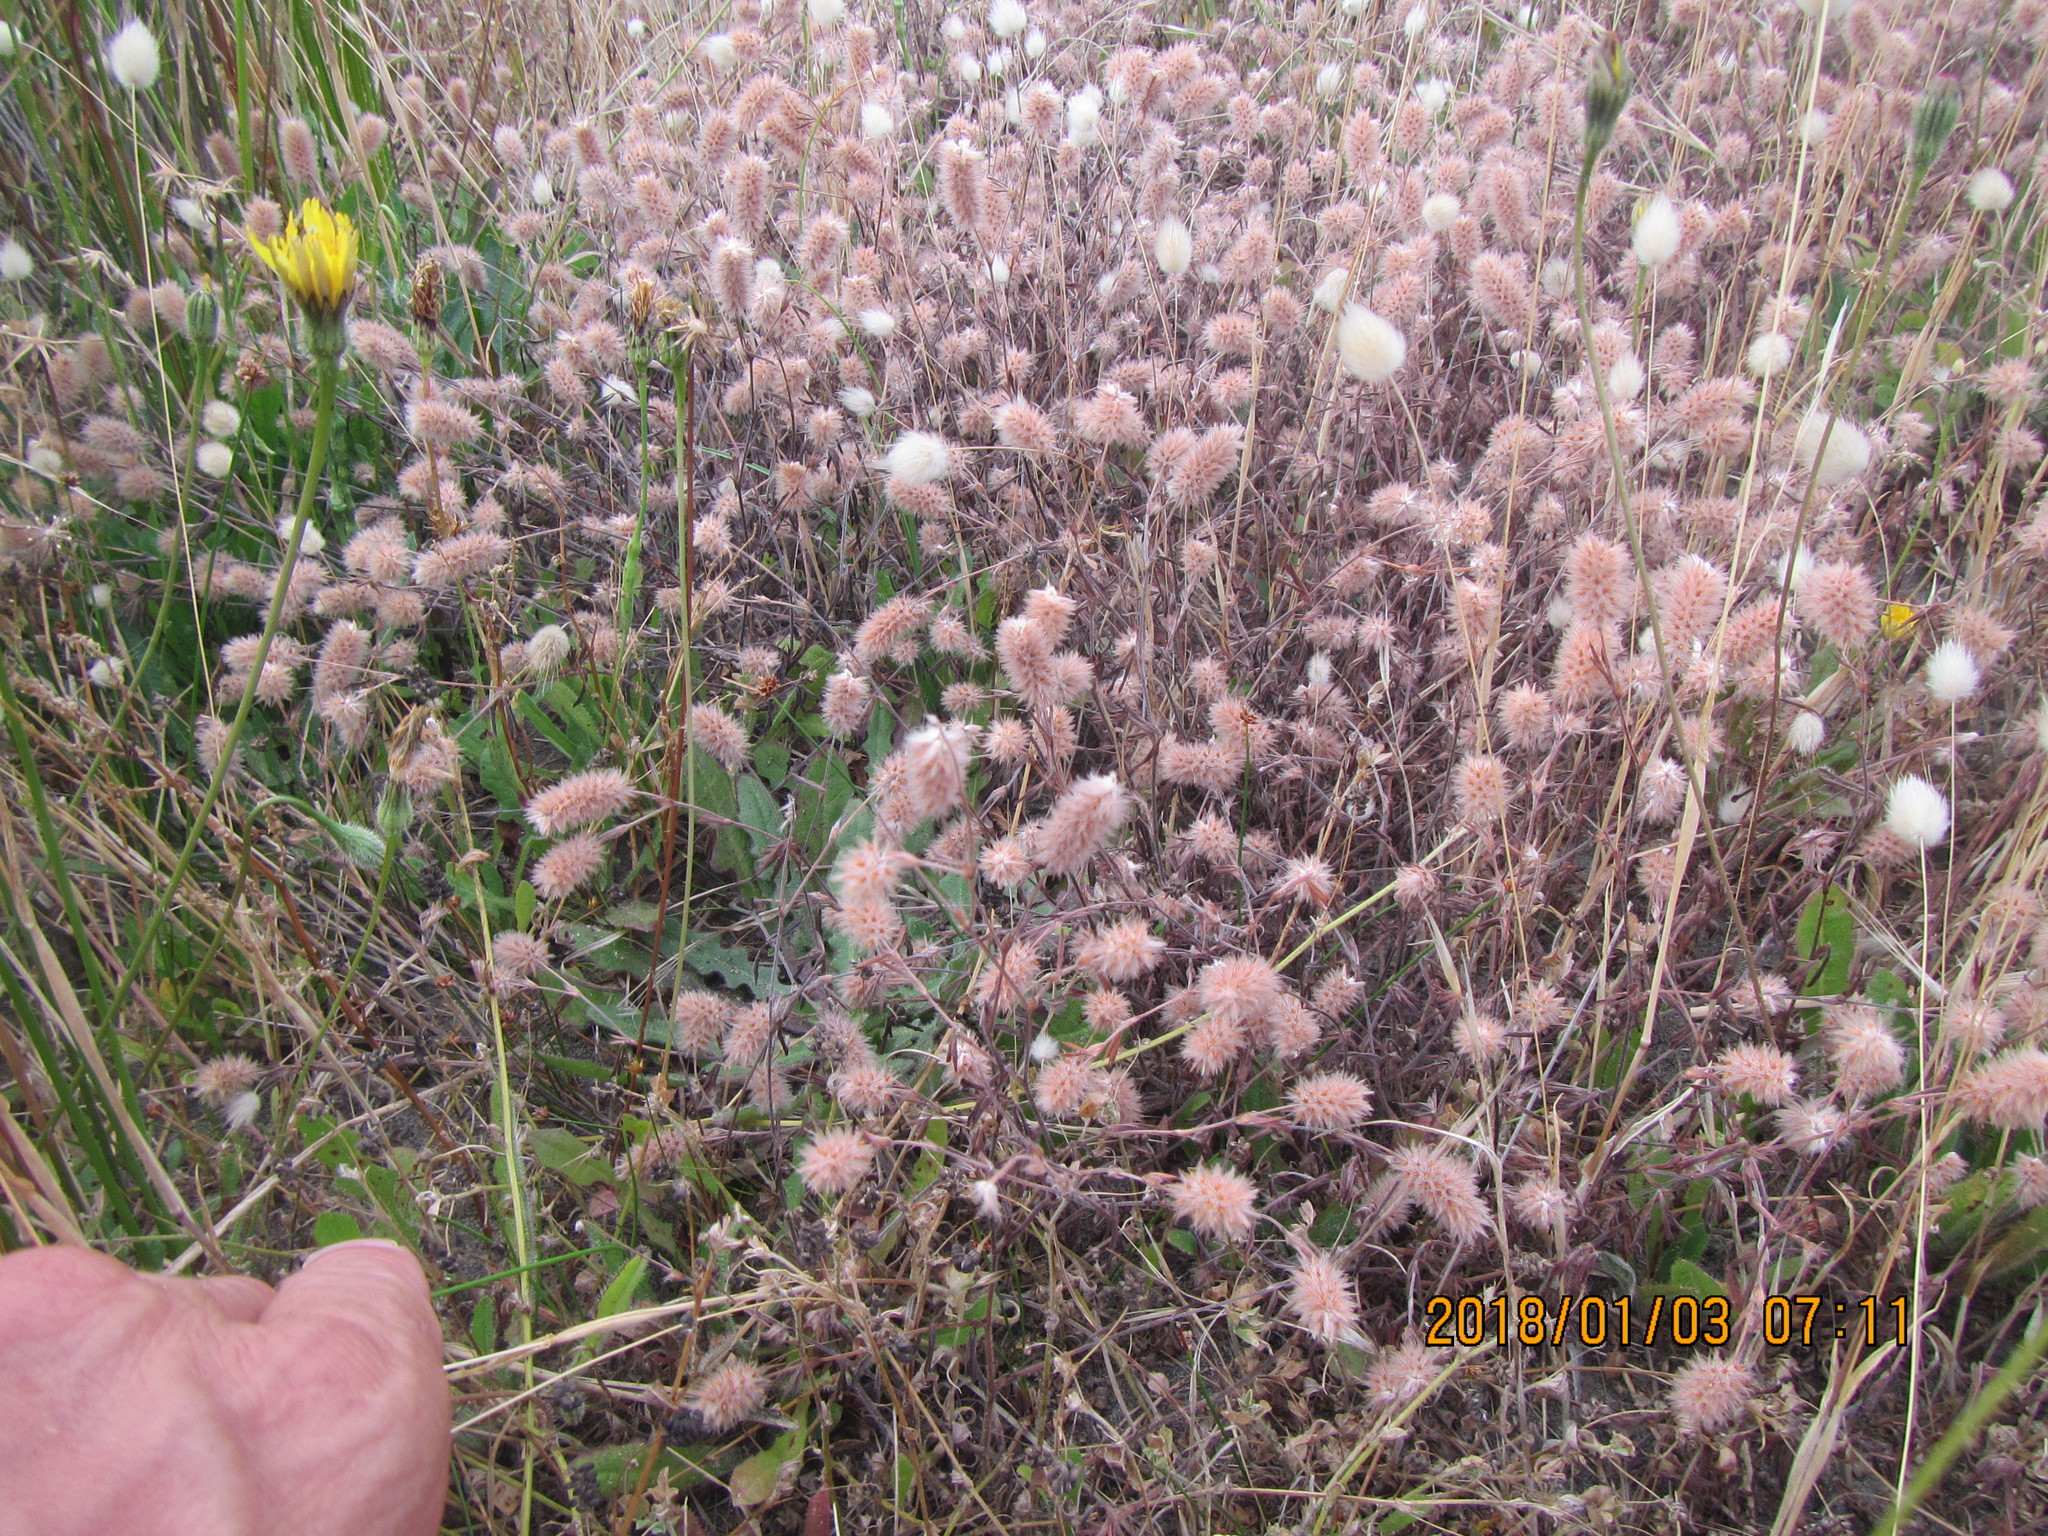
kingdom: Plantae
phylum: Tracheophyta
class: Magnoliopsida
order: Fabales
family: Fabaceae
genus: Trifolium
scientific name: Trifolium arvense
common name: Hare's-foot clover
